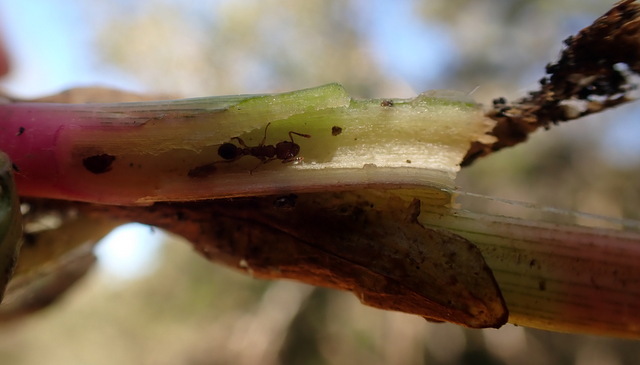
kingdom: Animalia
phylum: Arthropoda
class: Insecta
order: Hymenoptera
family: Formicidae
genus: Tetramorium
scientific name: Tetramorium bicarinatum
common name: Guinea ant
